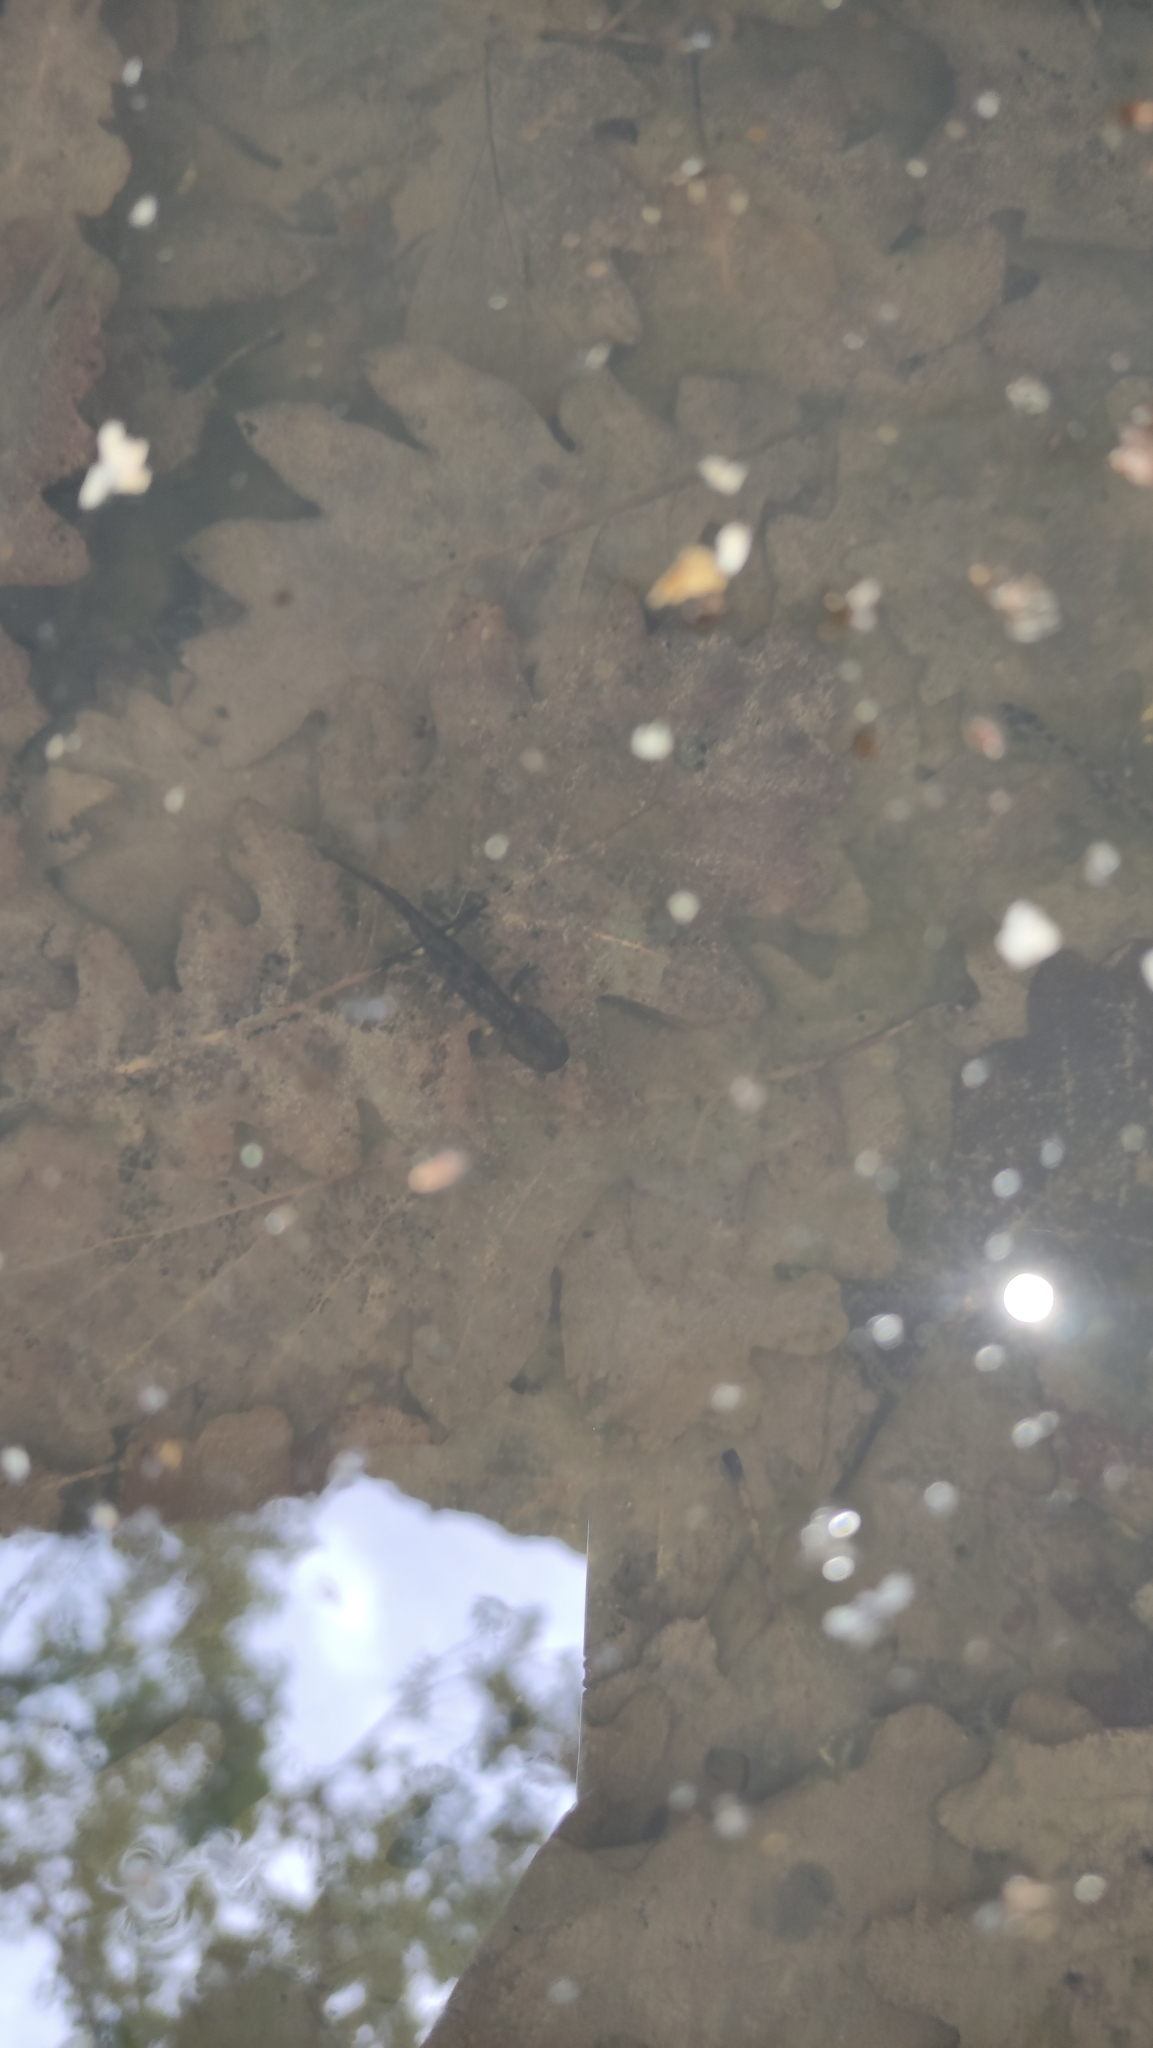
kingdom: Animalia
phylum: Chordata
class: Amphibia
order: Caudata
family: Salamandridae
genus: Salamandra
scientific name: Salamandra salamandra
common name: Fire salamander
